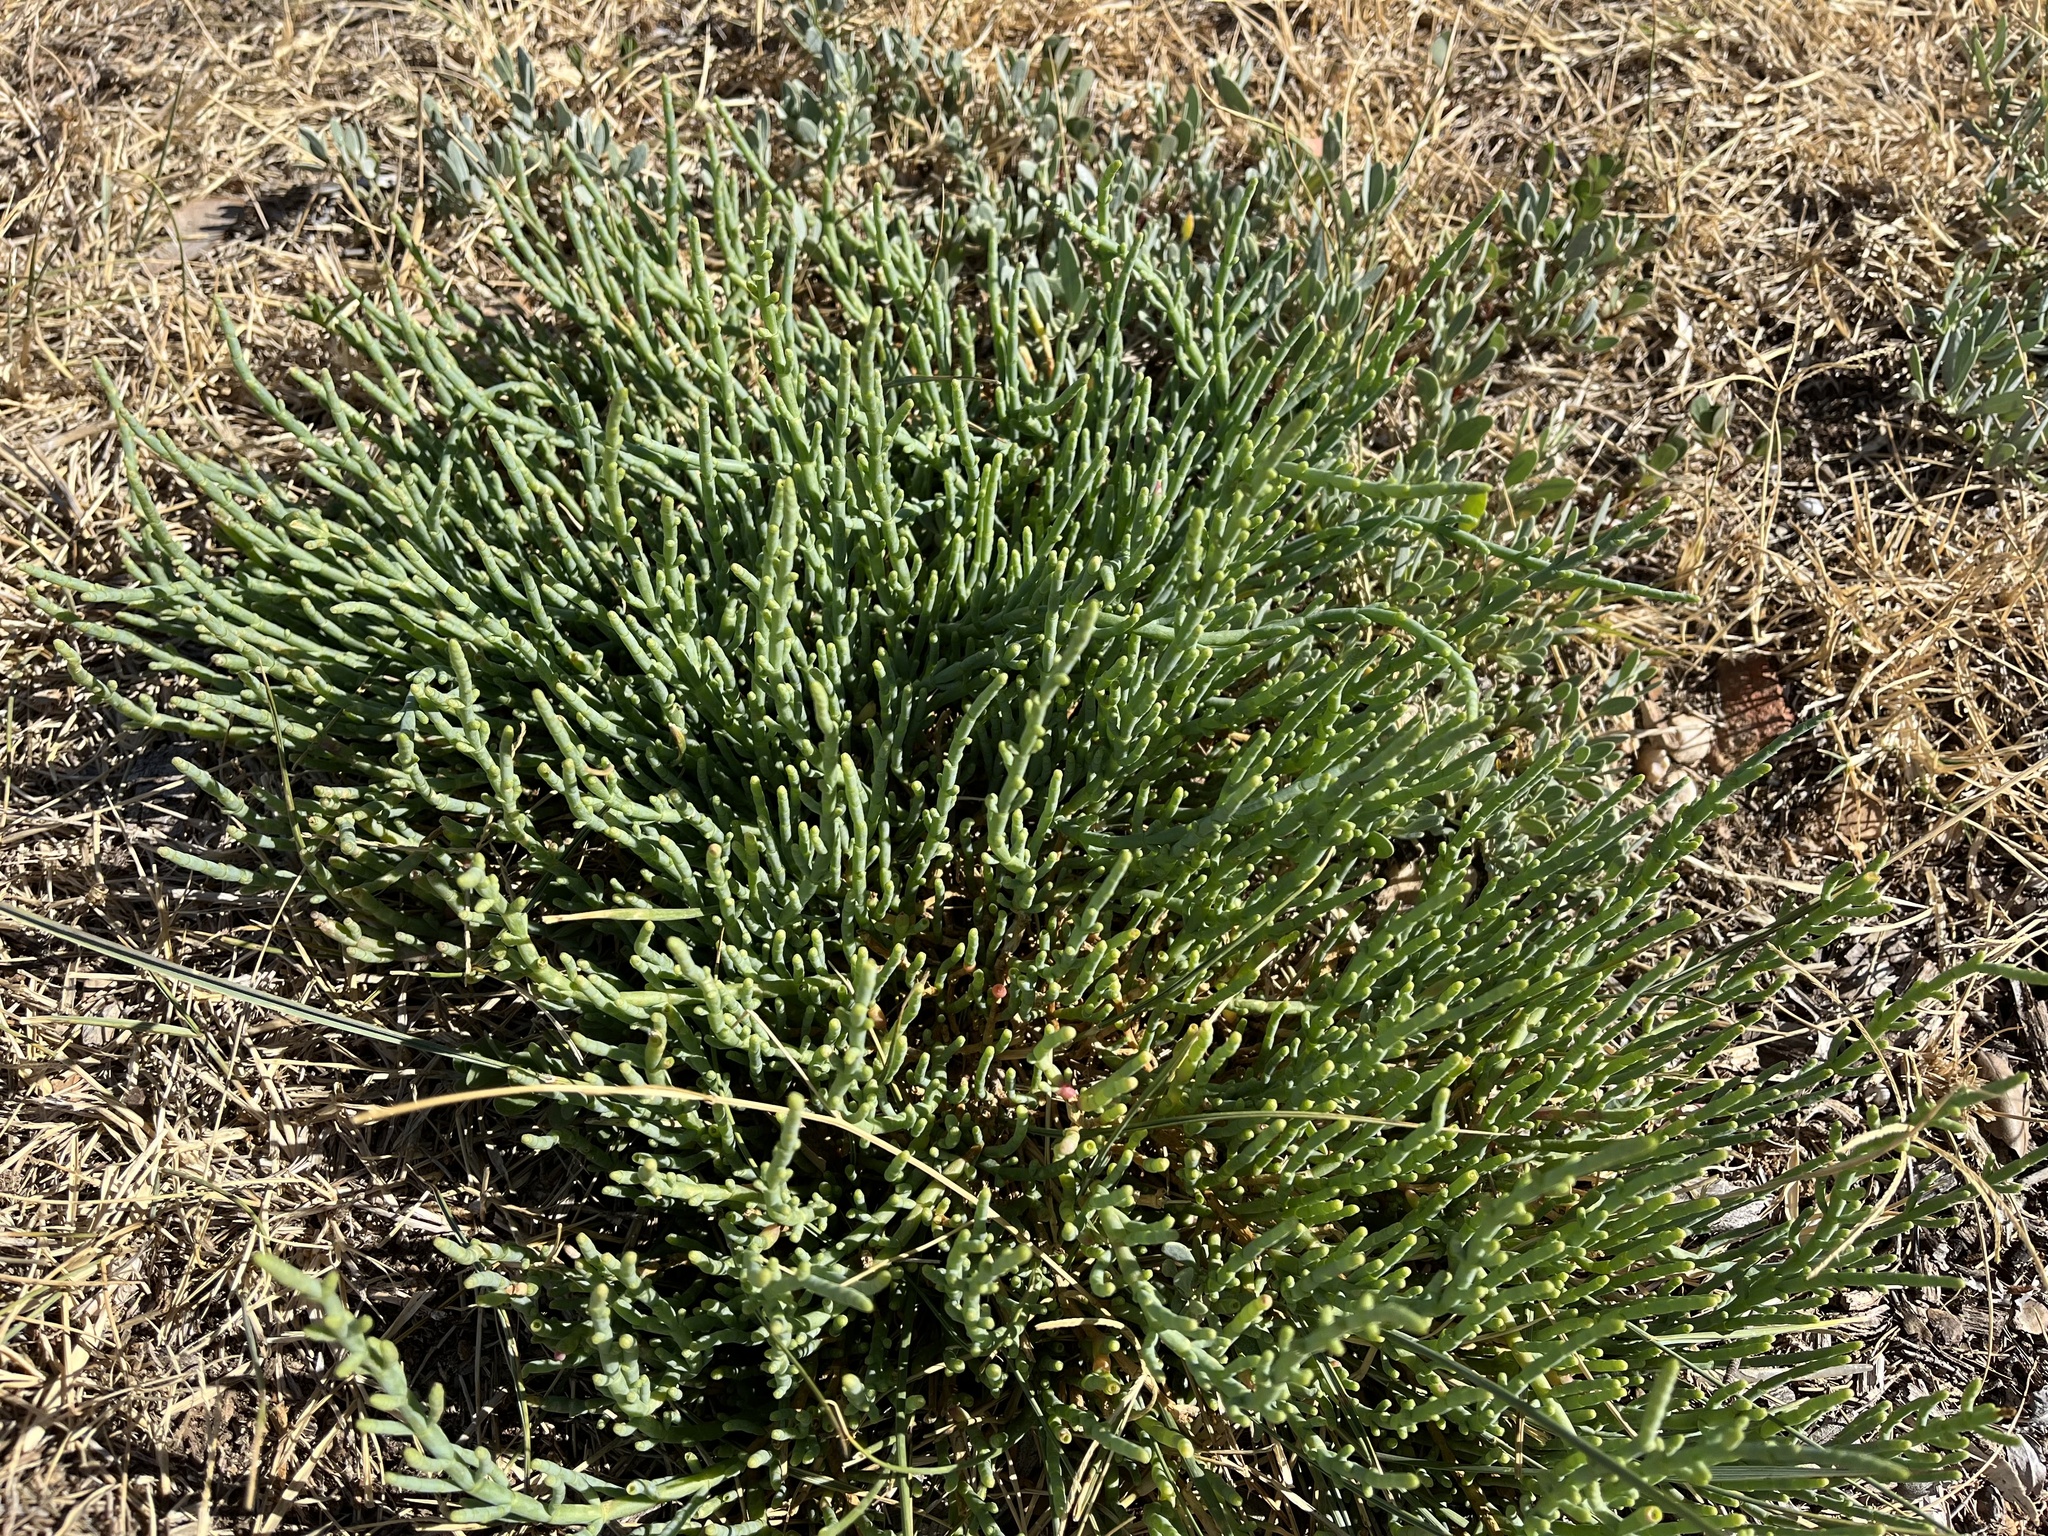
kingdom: Plantae
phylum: Tracheophyta
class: Magnoliopsida
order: Caryophyllales
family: Amaranthaceae
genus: Arthrocaulon
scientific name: Arthrocaulon macrostachyum
